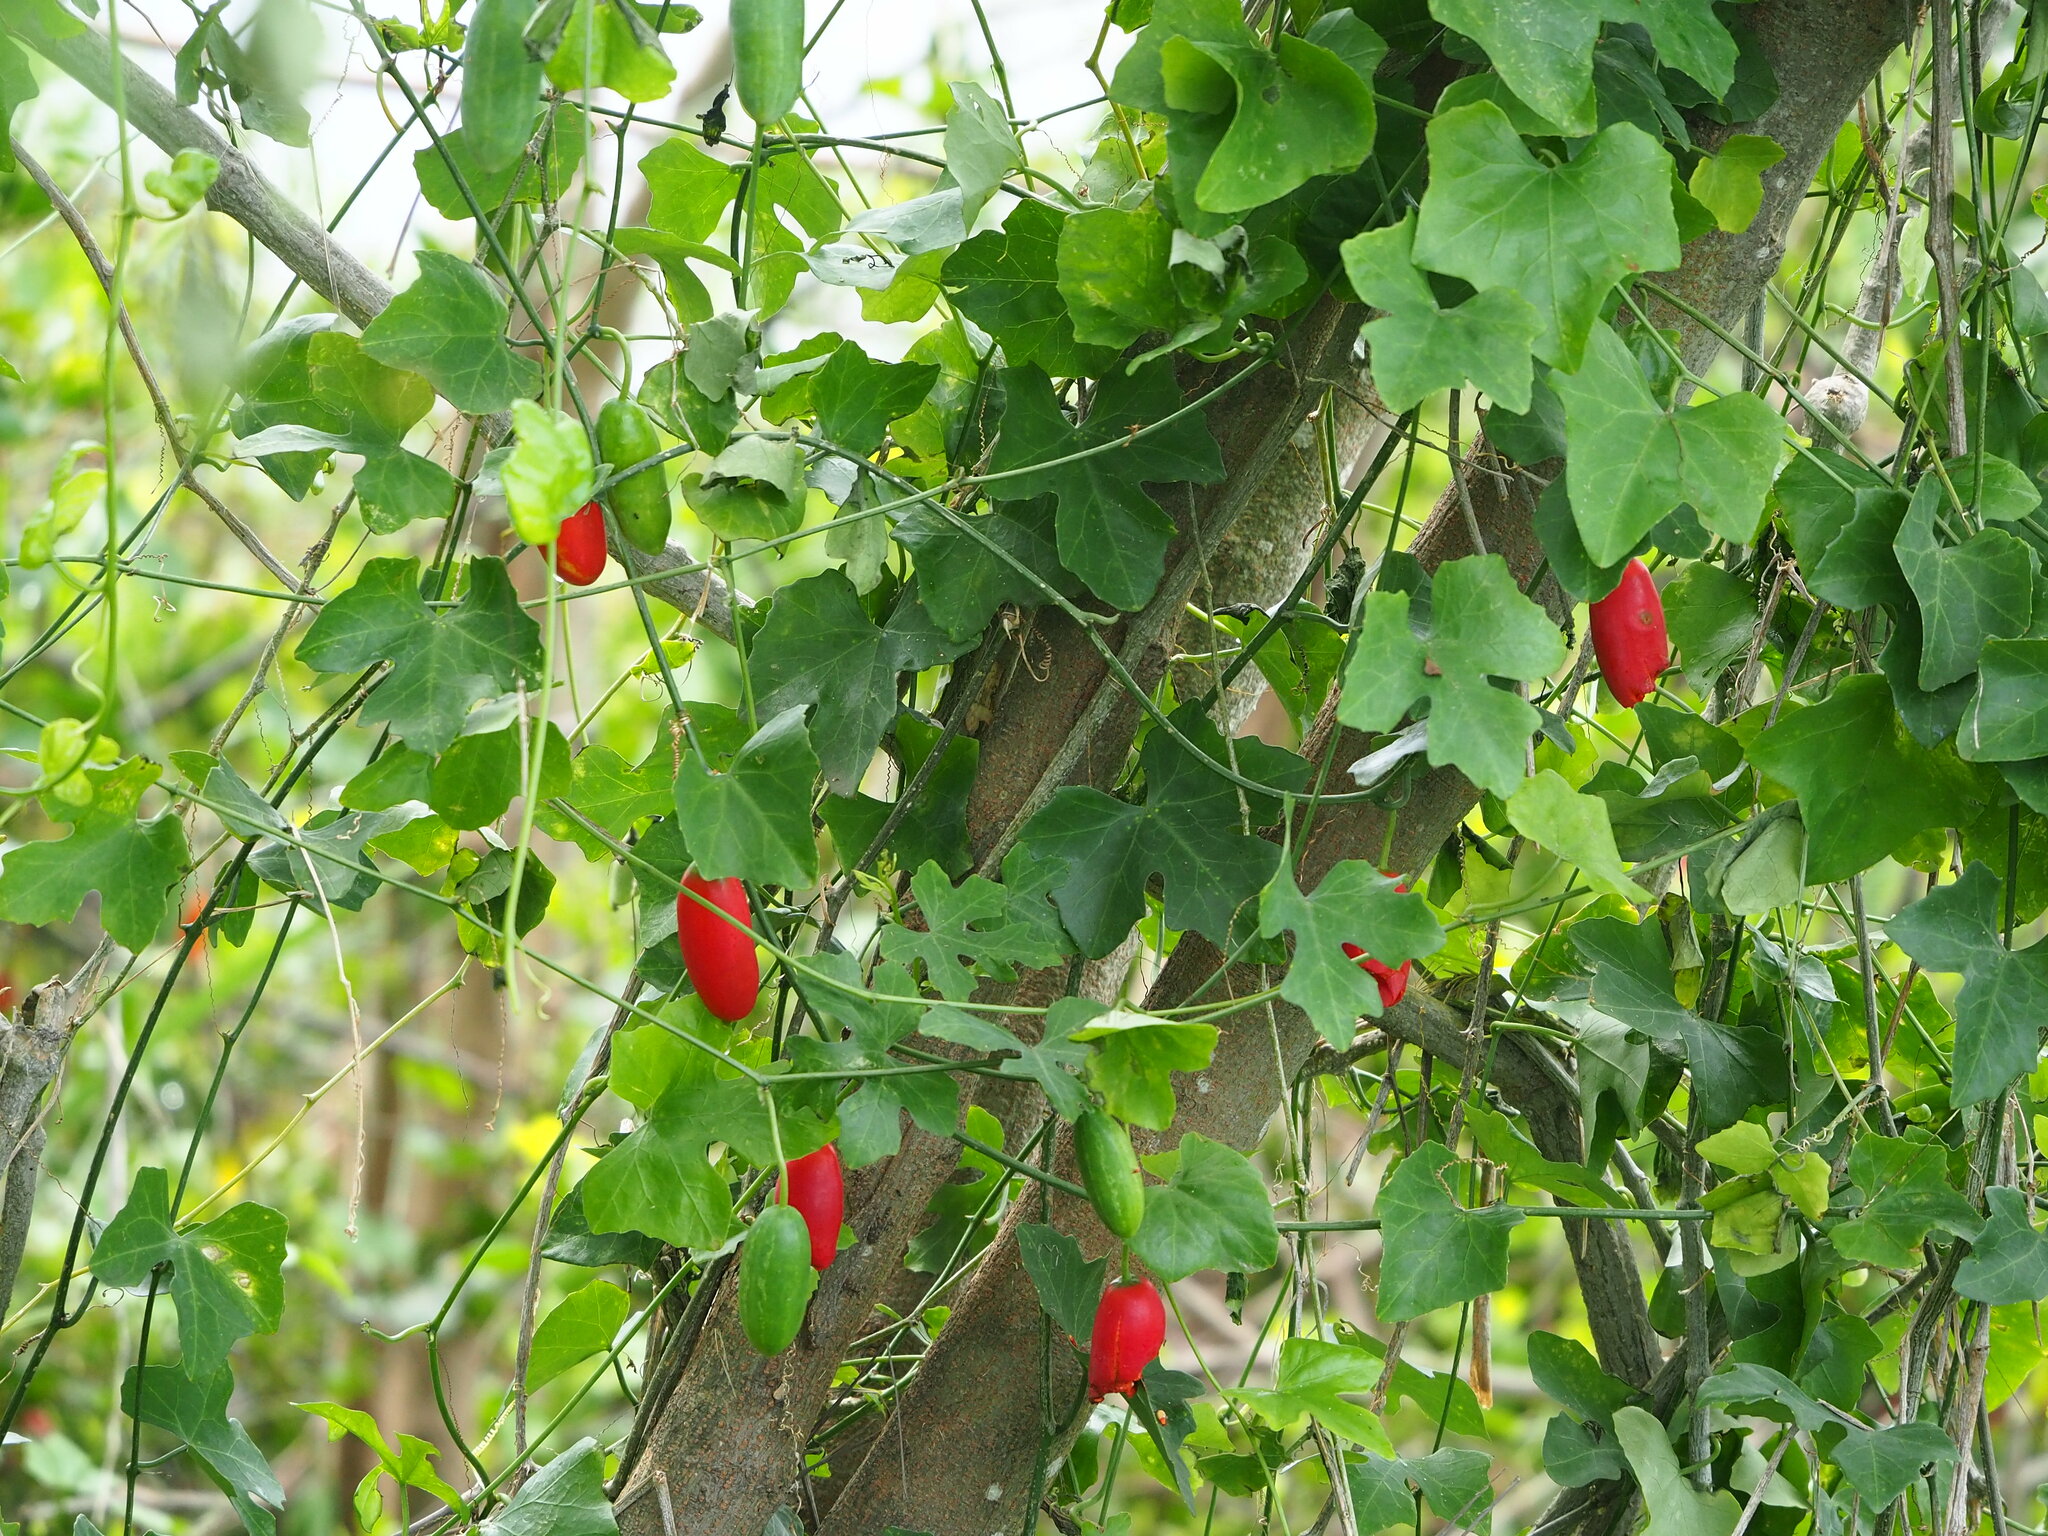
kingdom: Plantae
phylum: Tracheophyta
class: Magnoliopsida
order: Cucurbitales
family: Cucurbitaceae
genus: Coccinia
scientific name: Coccinia grandis
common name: Ivy gourd
